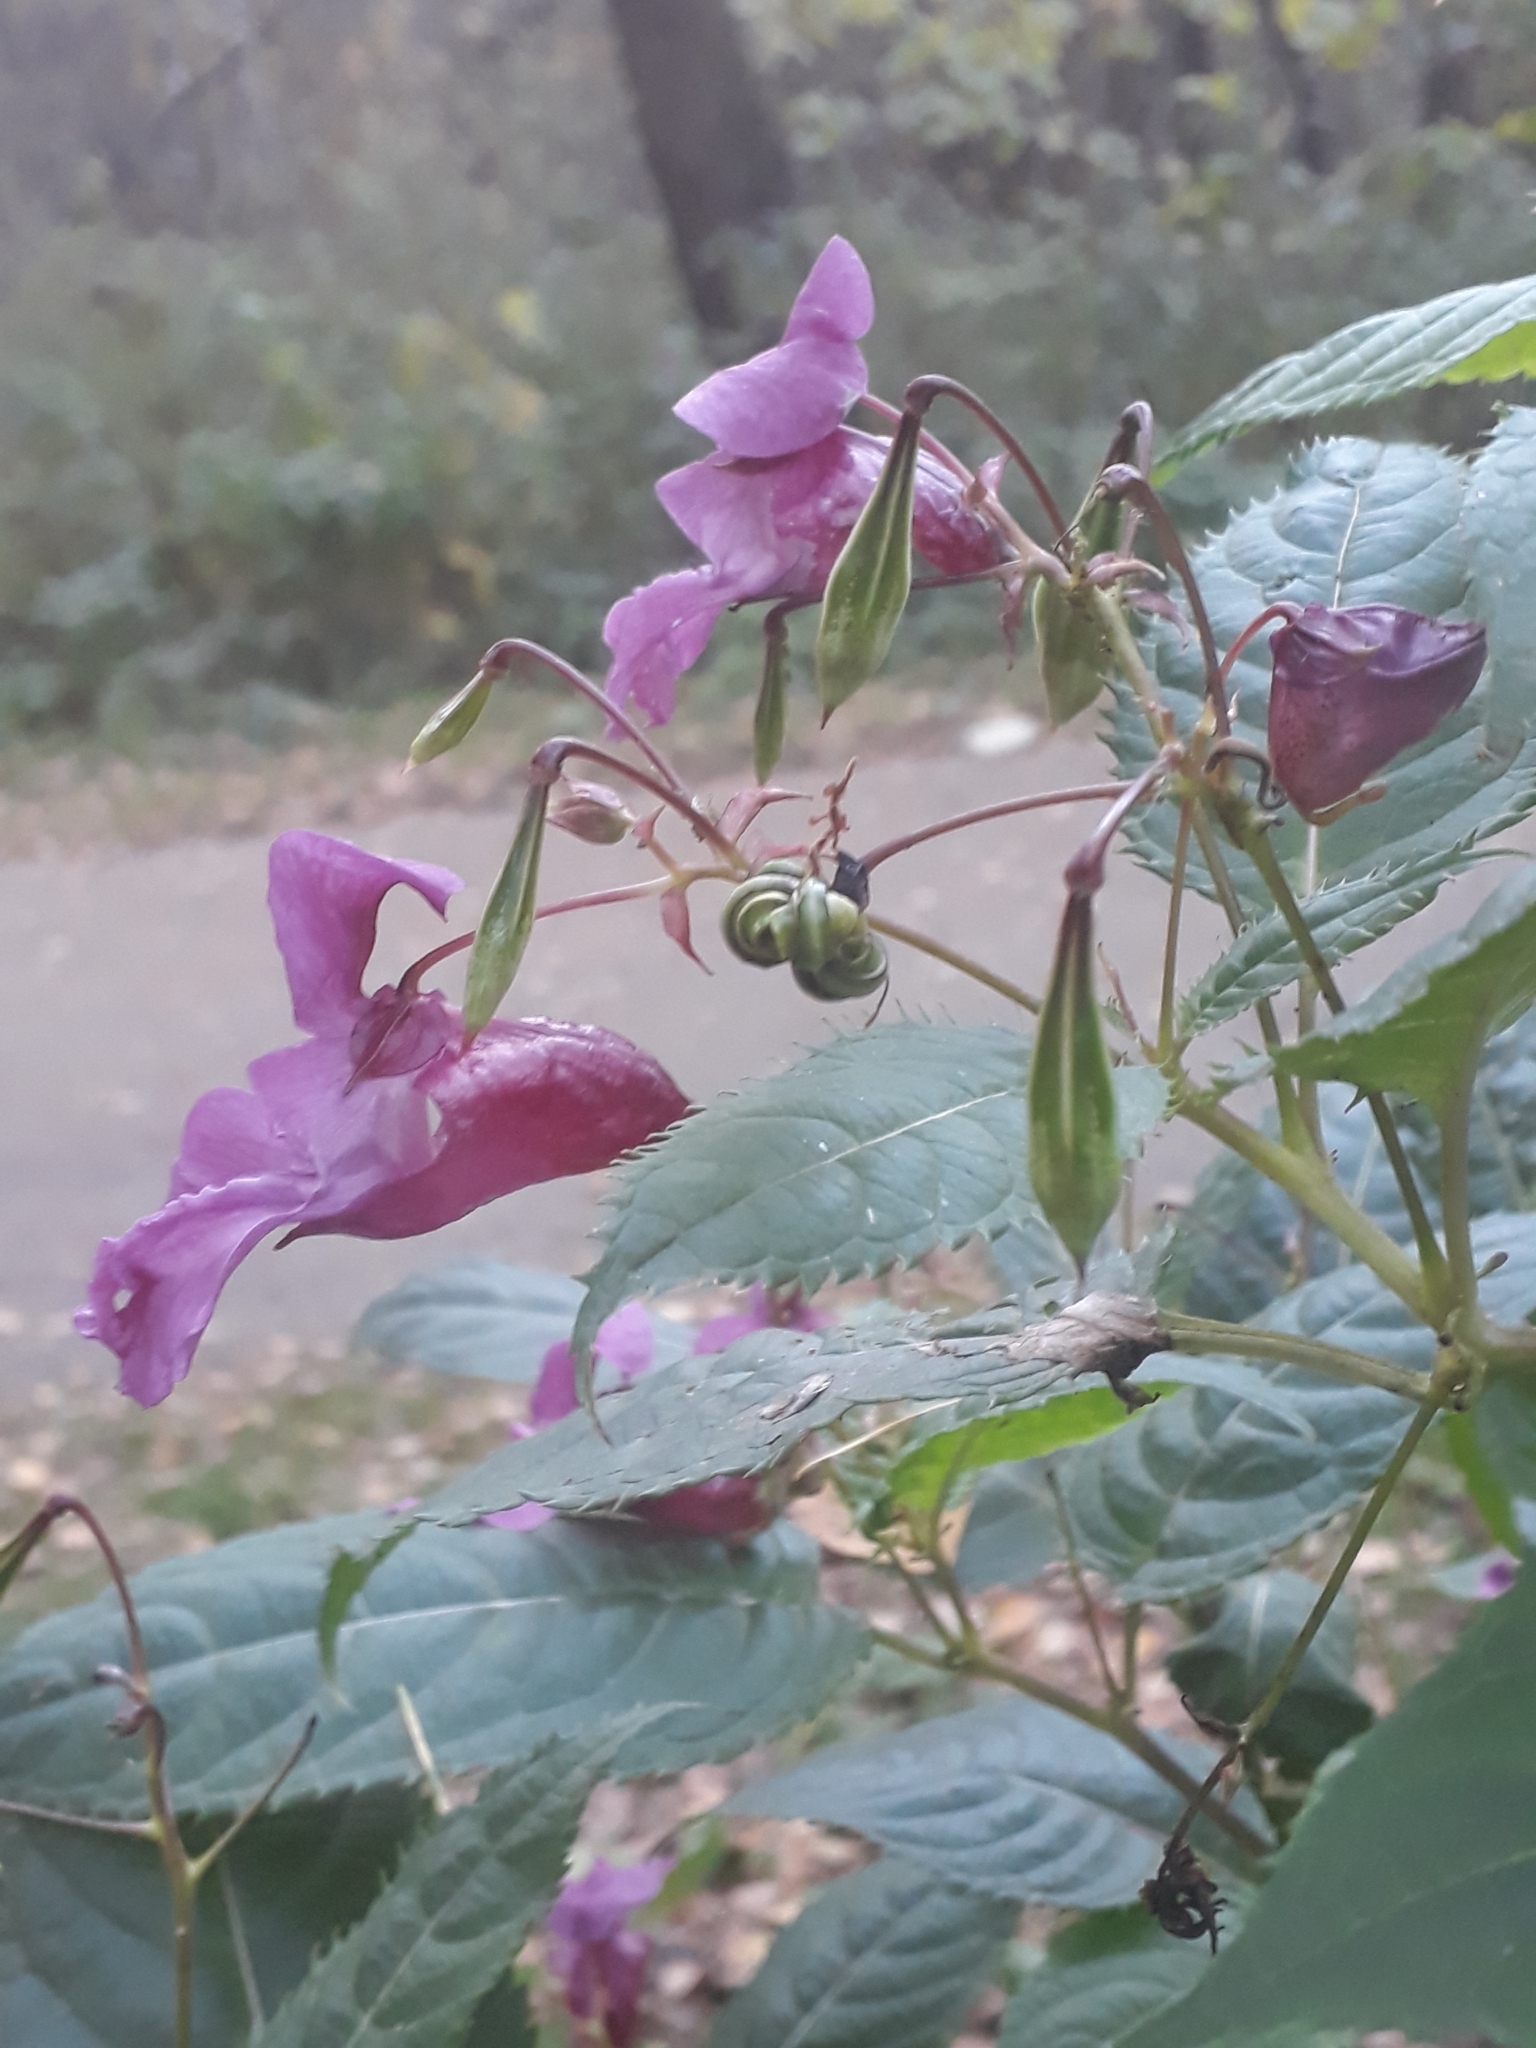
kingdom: Plantae
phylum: Tracheophyta
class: Magnoliopsida
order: Ericales
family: Balsaminaceae
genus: Impatiens
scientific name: Impatiens glandulifera
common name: Himalayan balsam
